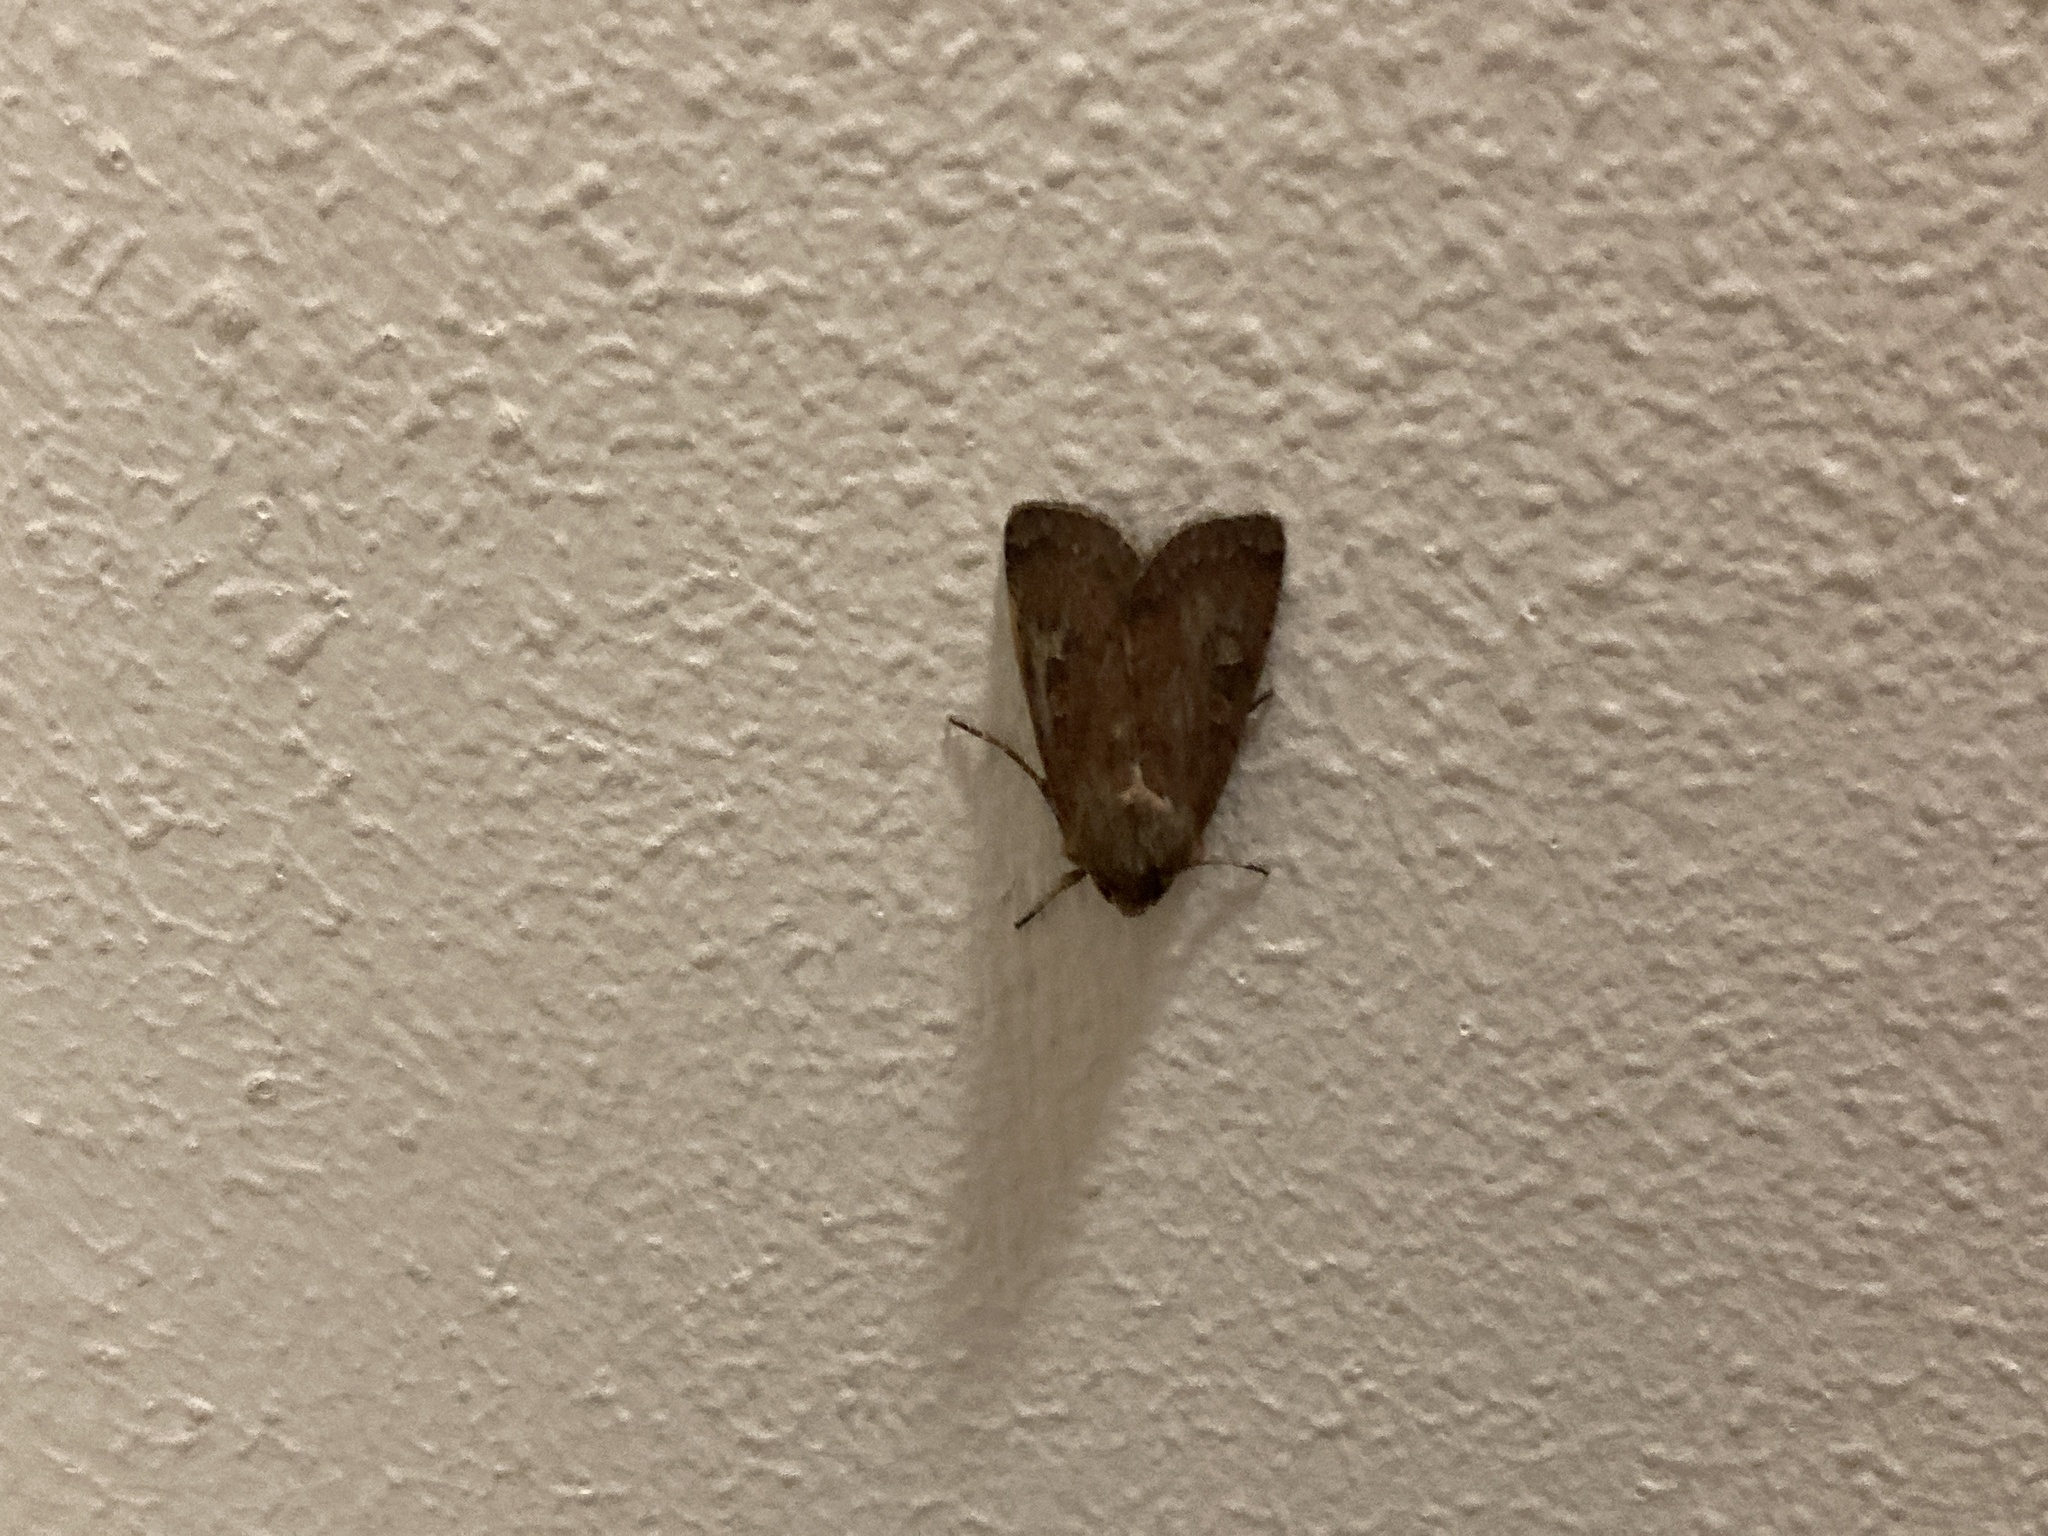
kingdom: Animalia
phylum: Arthropoda
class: Insecta
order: Lepidoptera
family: Noctuidae
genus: Xestia
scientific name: Xestia xanthographa
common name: Square-spot rustic
